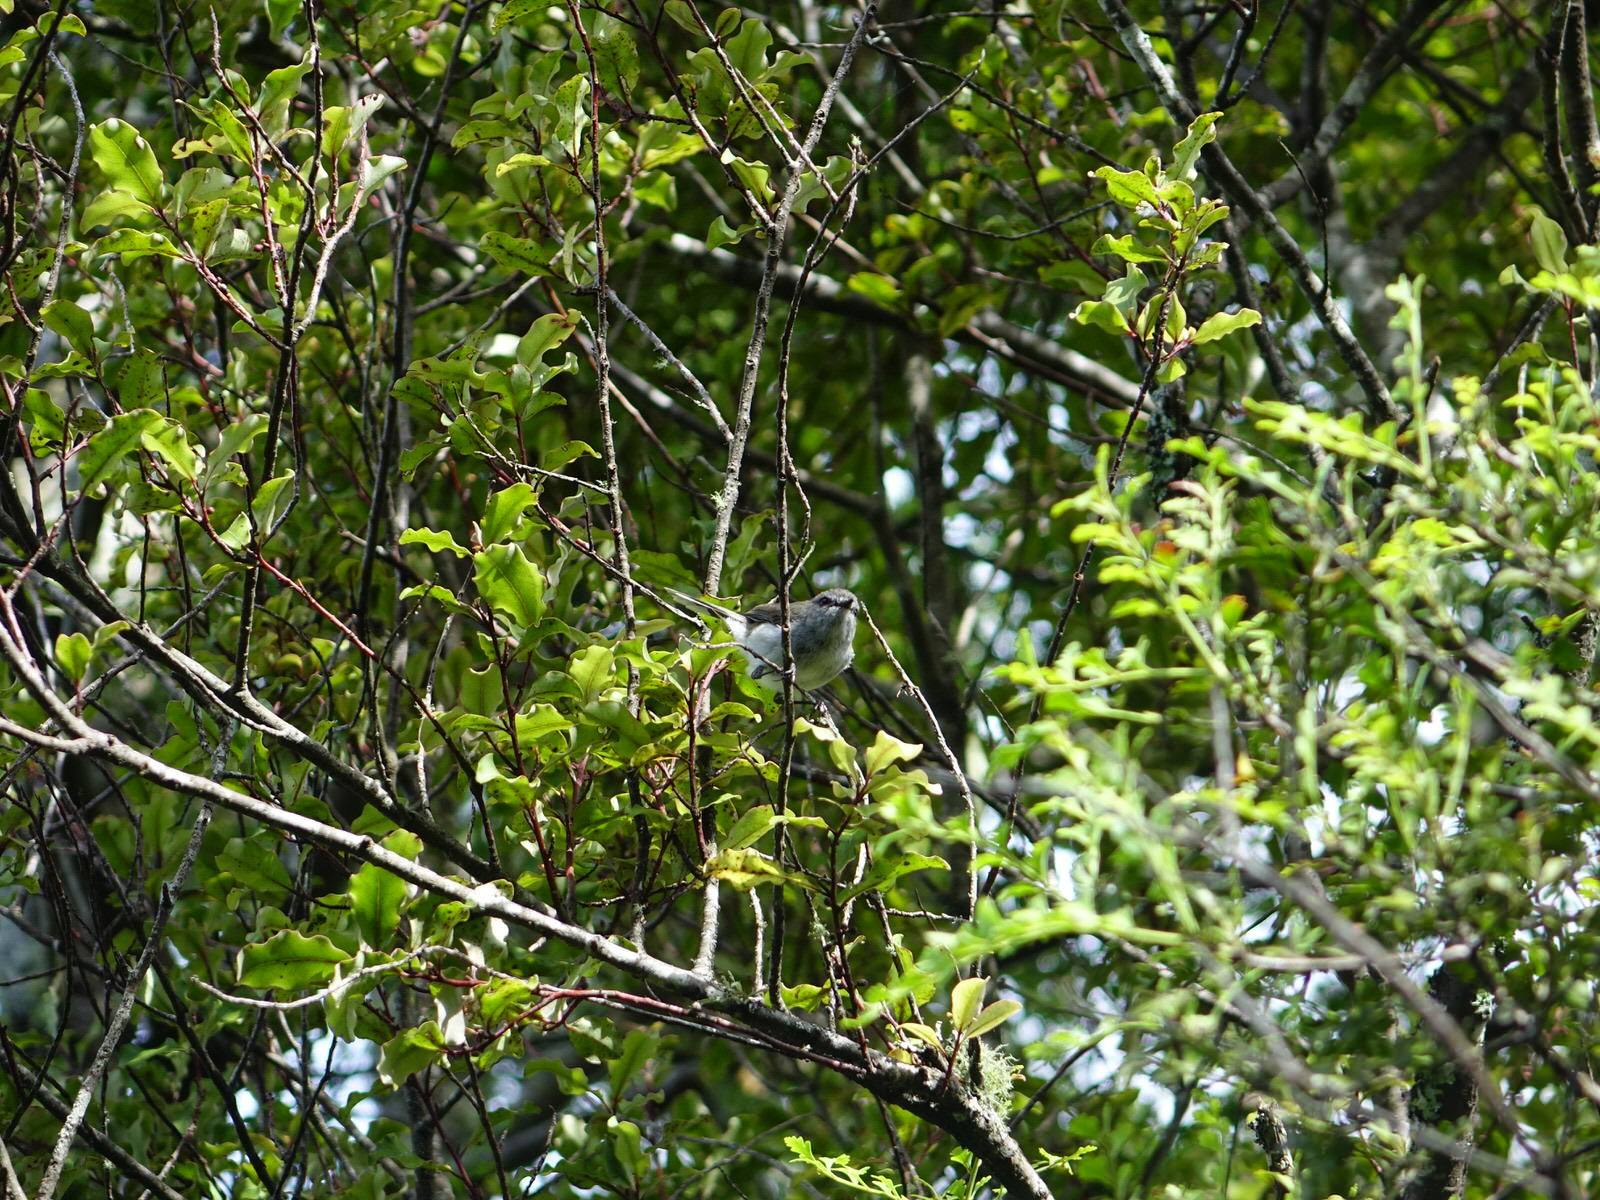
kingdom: Animalia
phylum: Chordata
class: Aves
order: Passeriformes
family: Acanthizidae
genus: Gerygone
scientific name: Gerygone igata
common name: Grey gerygone
